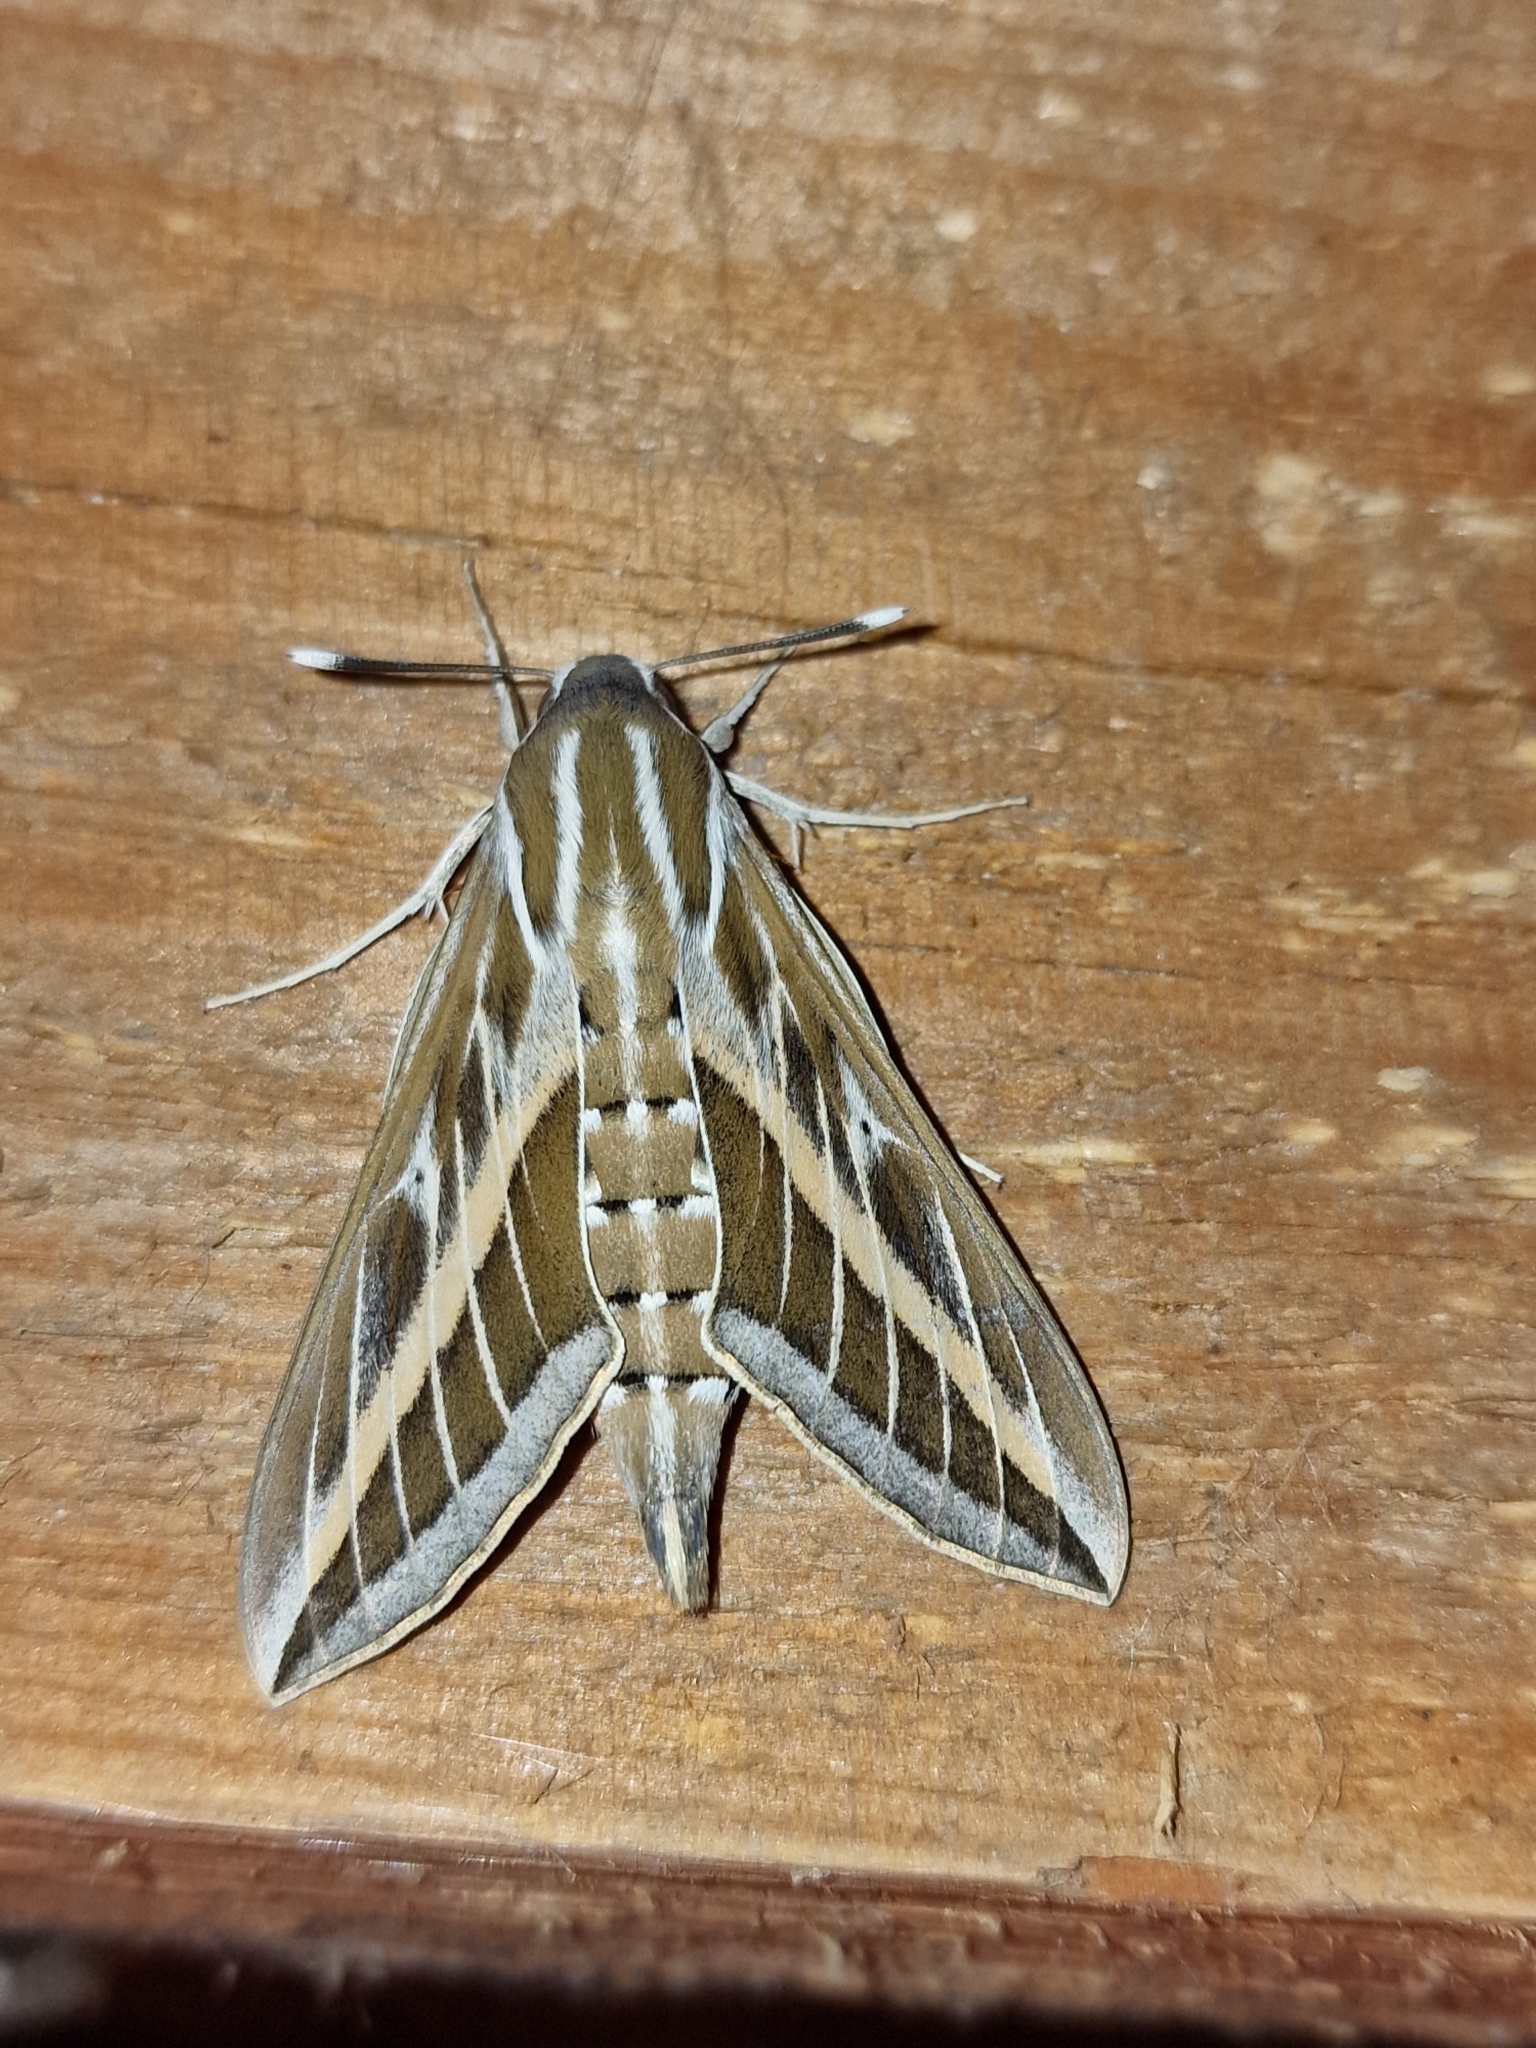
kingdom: Animalia
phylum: Arthropoda
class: Insecta
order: Lepidoptera
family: Sphingidae
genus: Hyles
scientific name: Hyles livornica
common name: Striped hawk-moth
